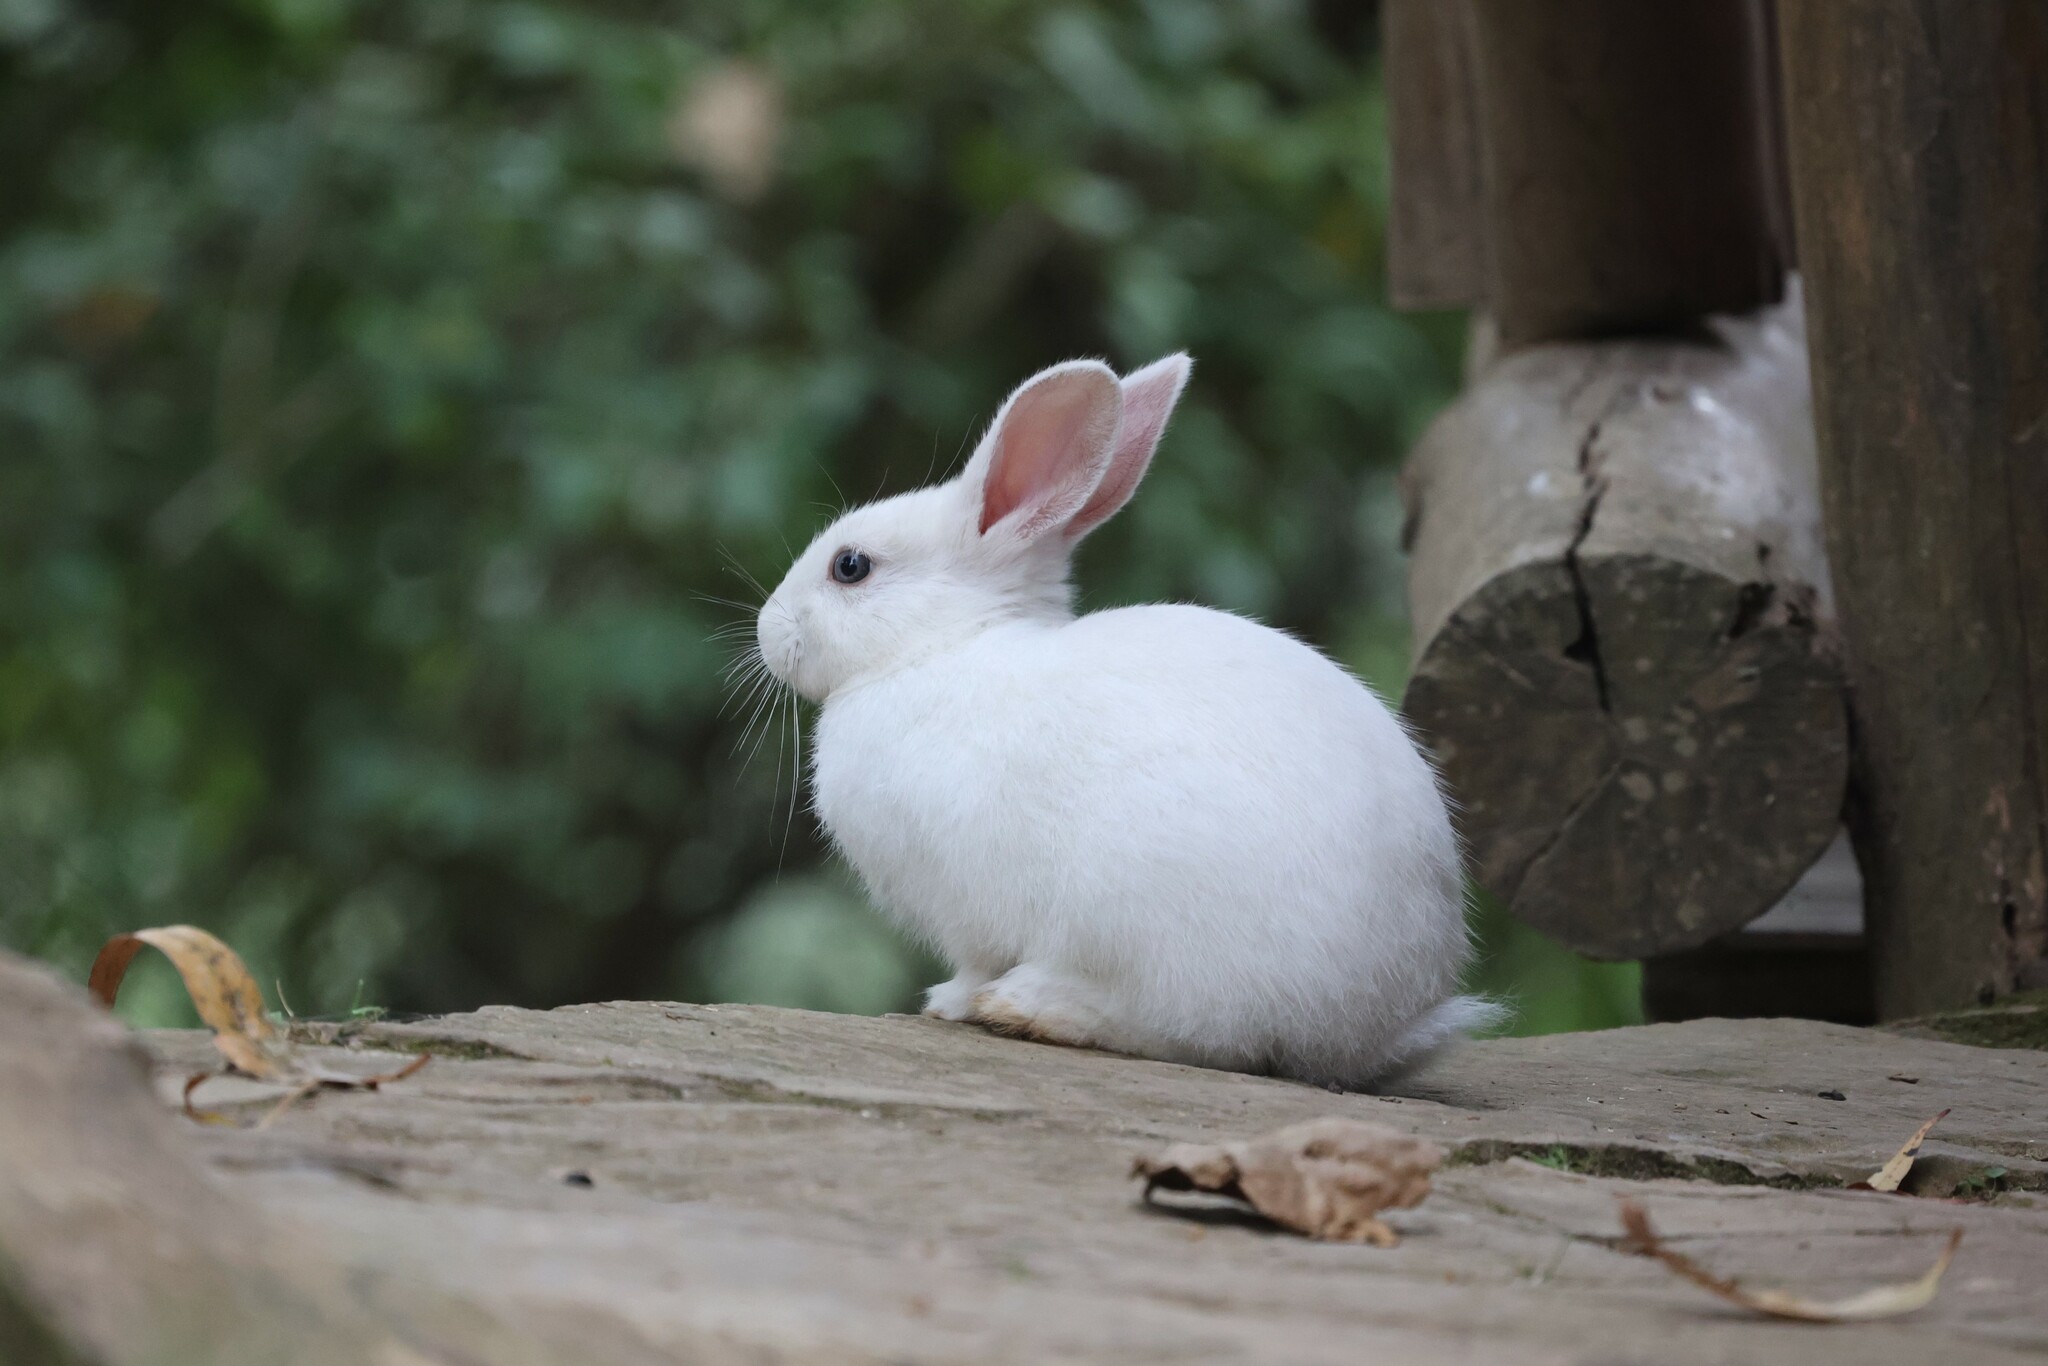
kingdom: Animalia
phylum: Chordata
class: Mammalia
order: Lagomorpha
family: Leporidae
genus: Oryctolagus
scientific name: Oryctolagus cuniculus
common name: European rabbit
